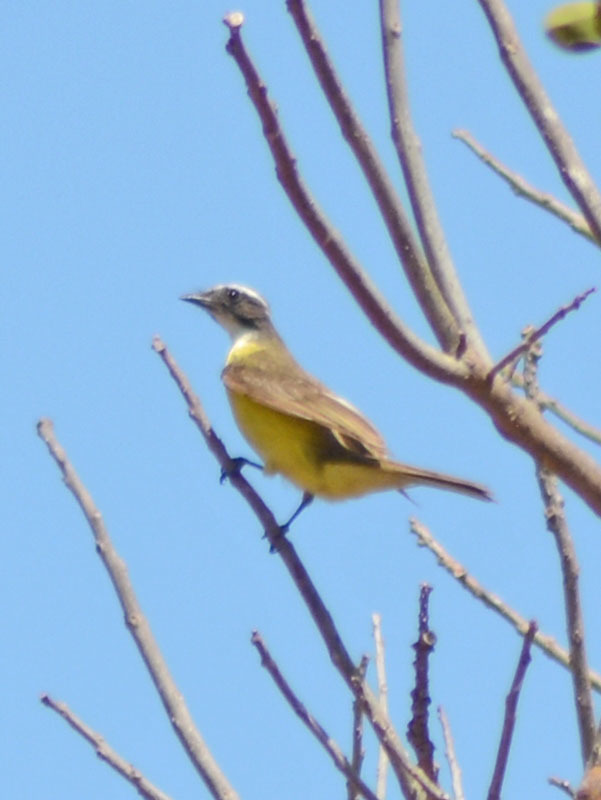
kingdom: Animalia
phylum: Chordata
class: Aves
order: Passeriformes
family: Tyrannidae
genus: Myiozetetes
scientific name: Myiozetetes similis
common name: Social flycatcher
